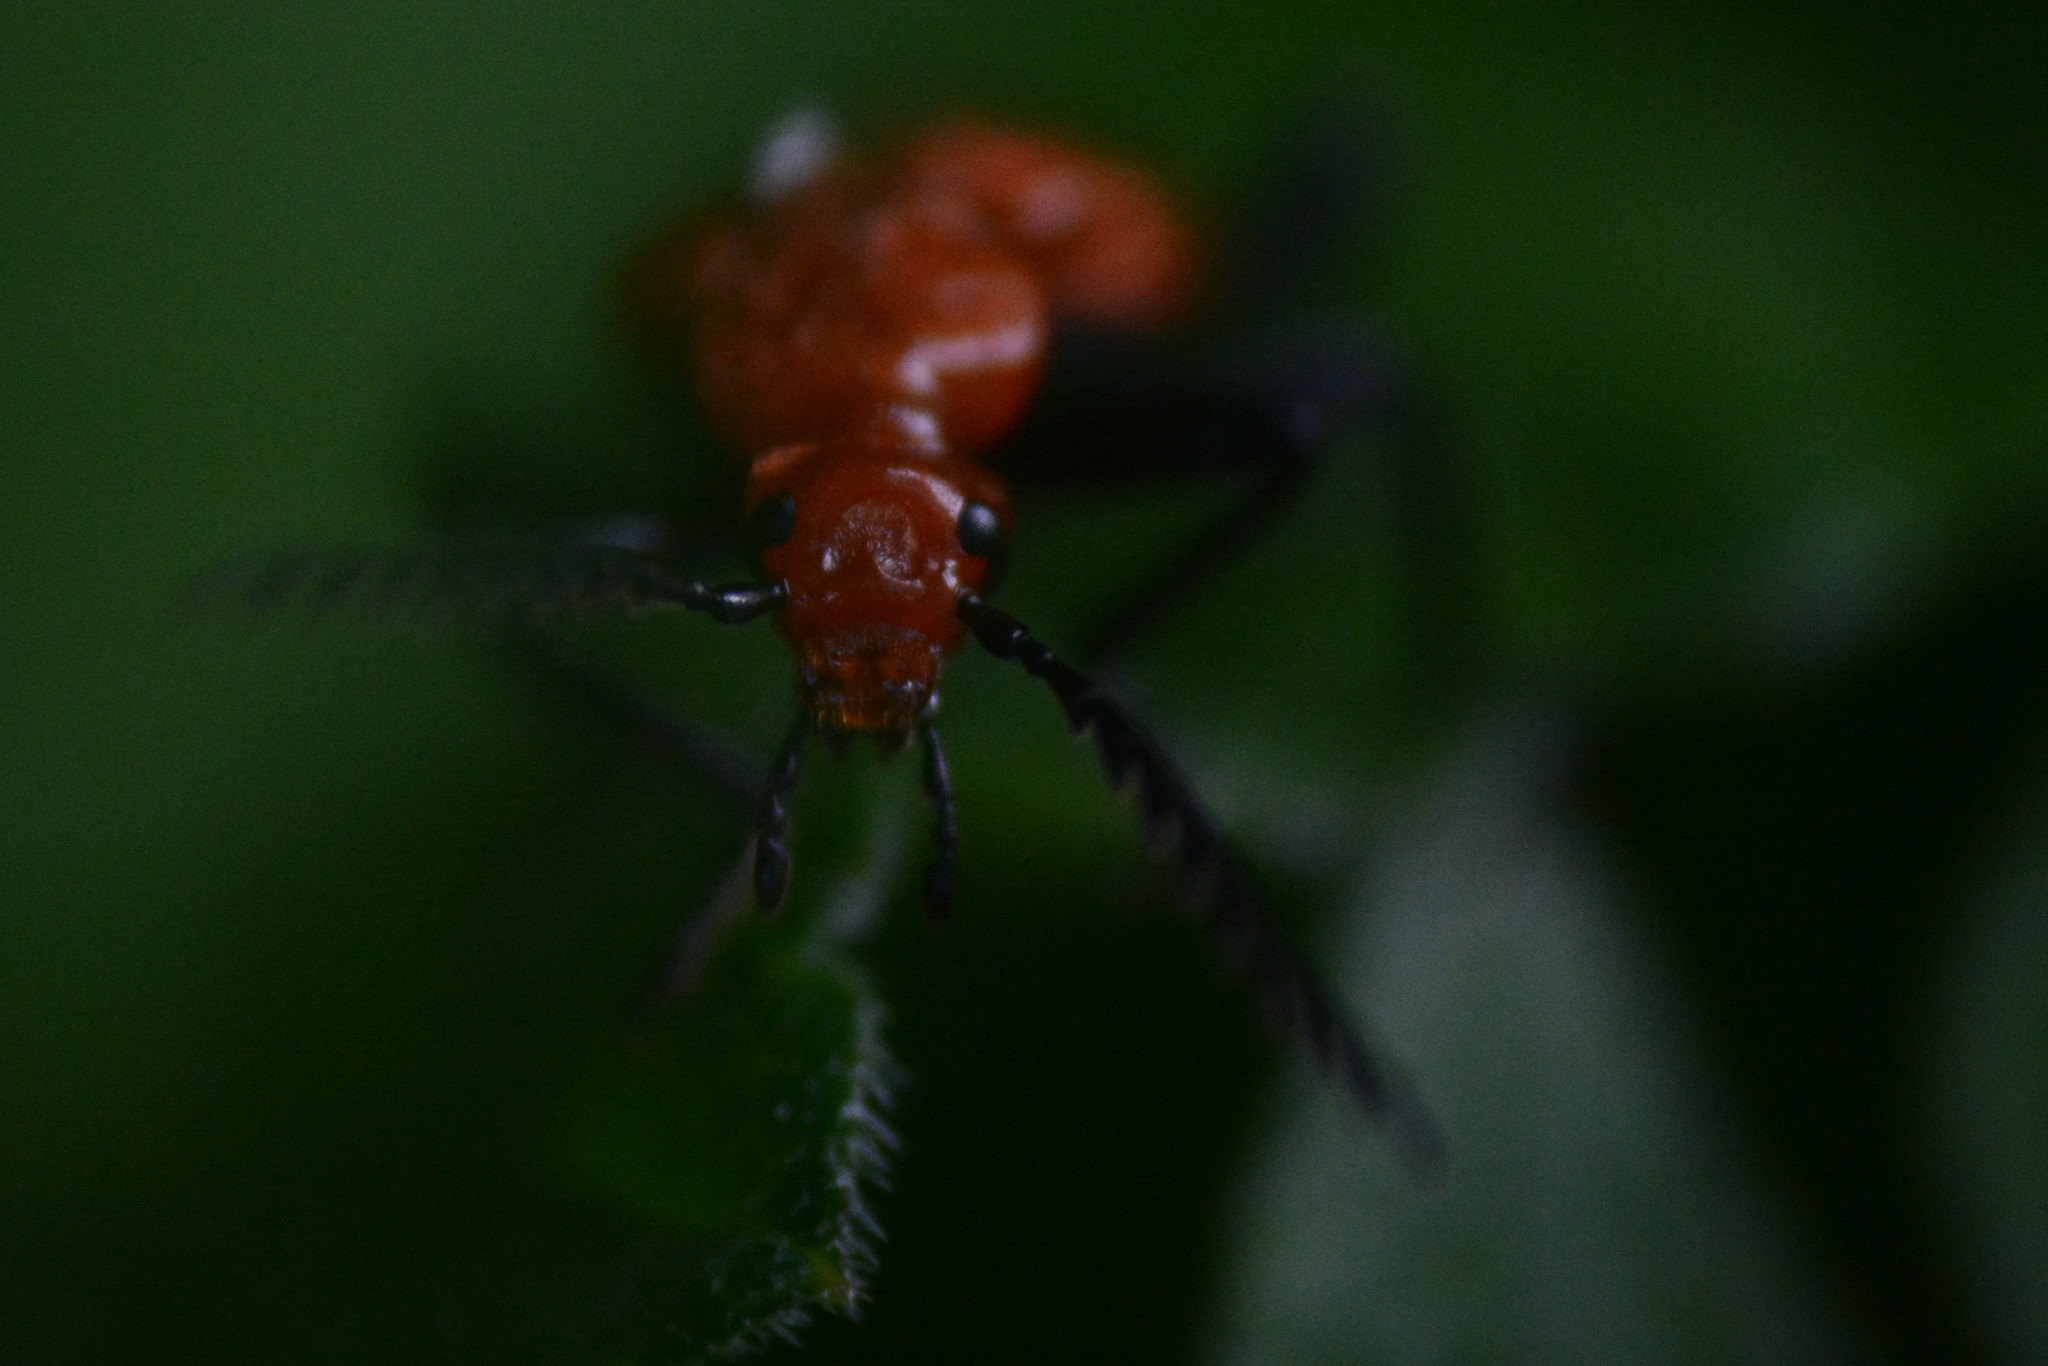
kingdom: Animalia
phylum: Arthropoda
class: Insecta
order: Coleoptera
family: Pyrochroidae
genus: Pyrochroa
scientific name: Pyrochroa serraticornis
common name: Red-headed cardinal beetle
